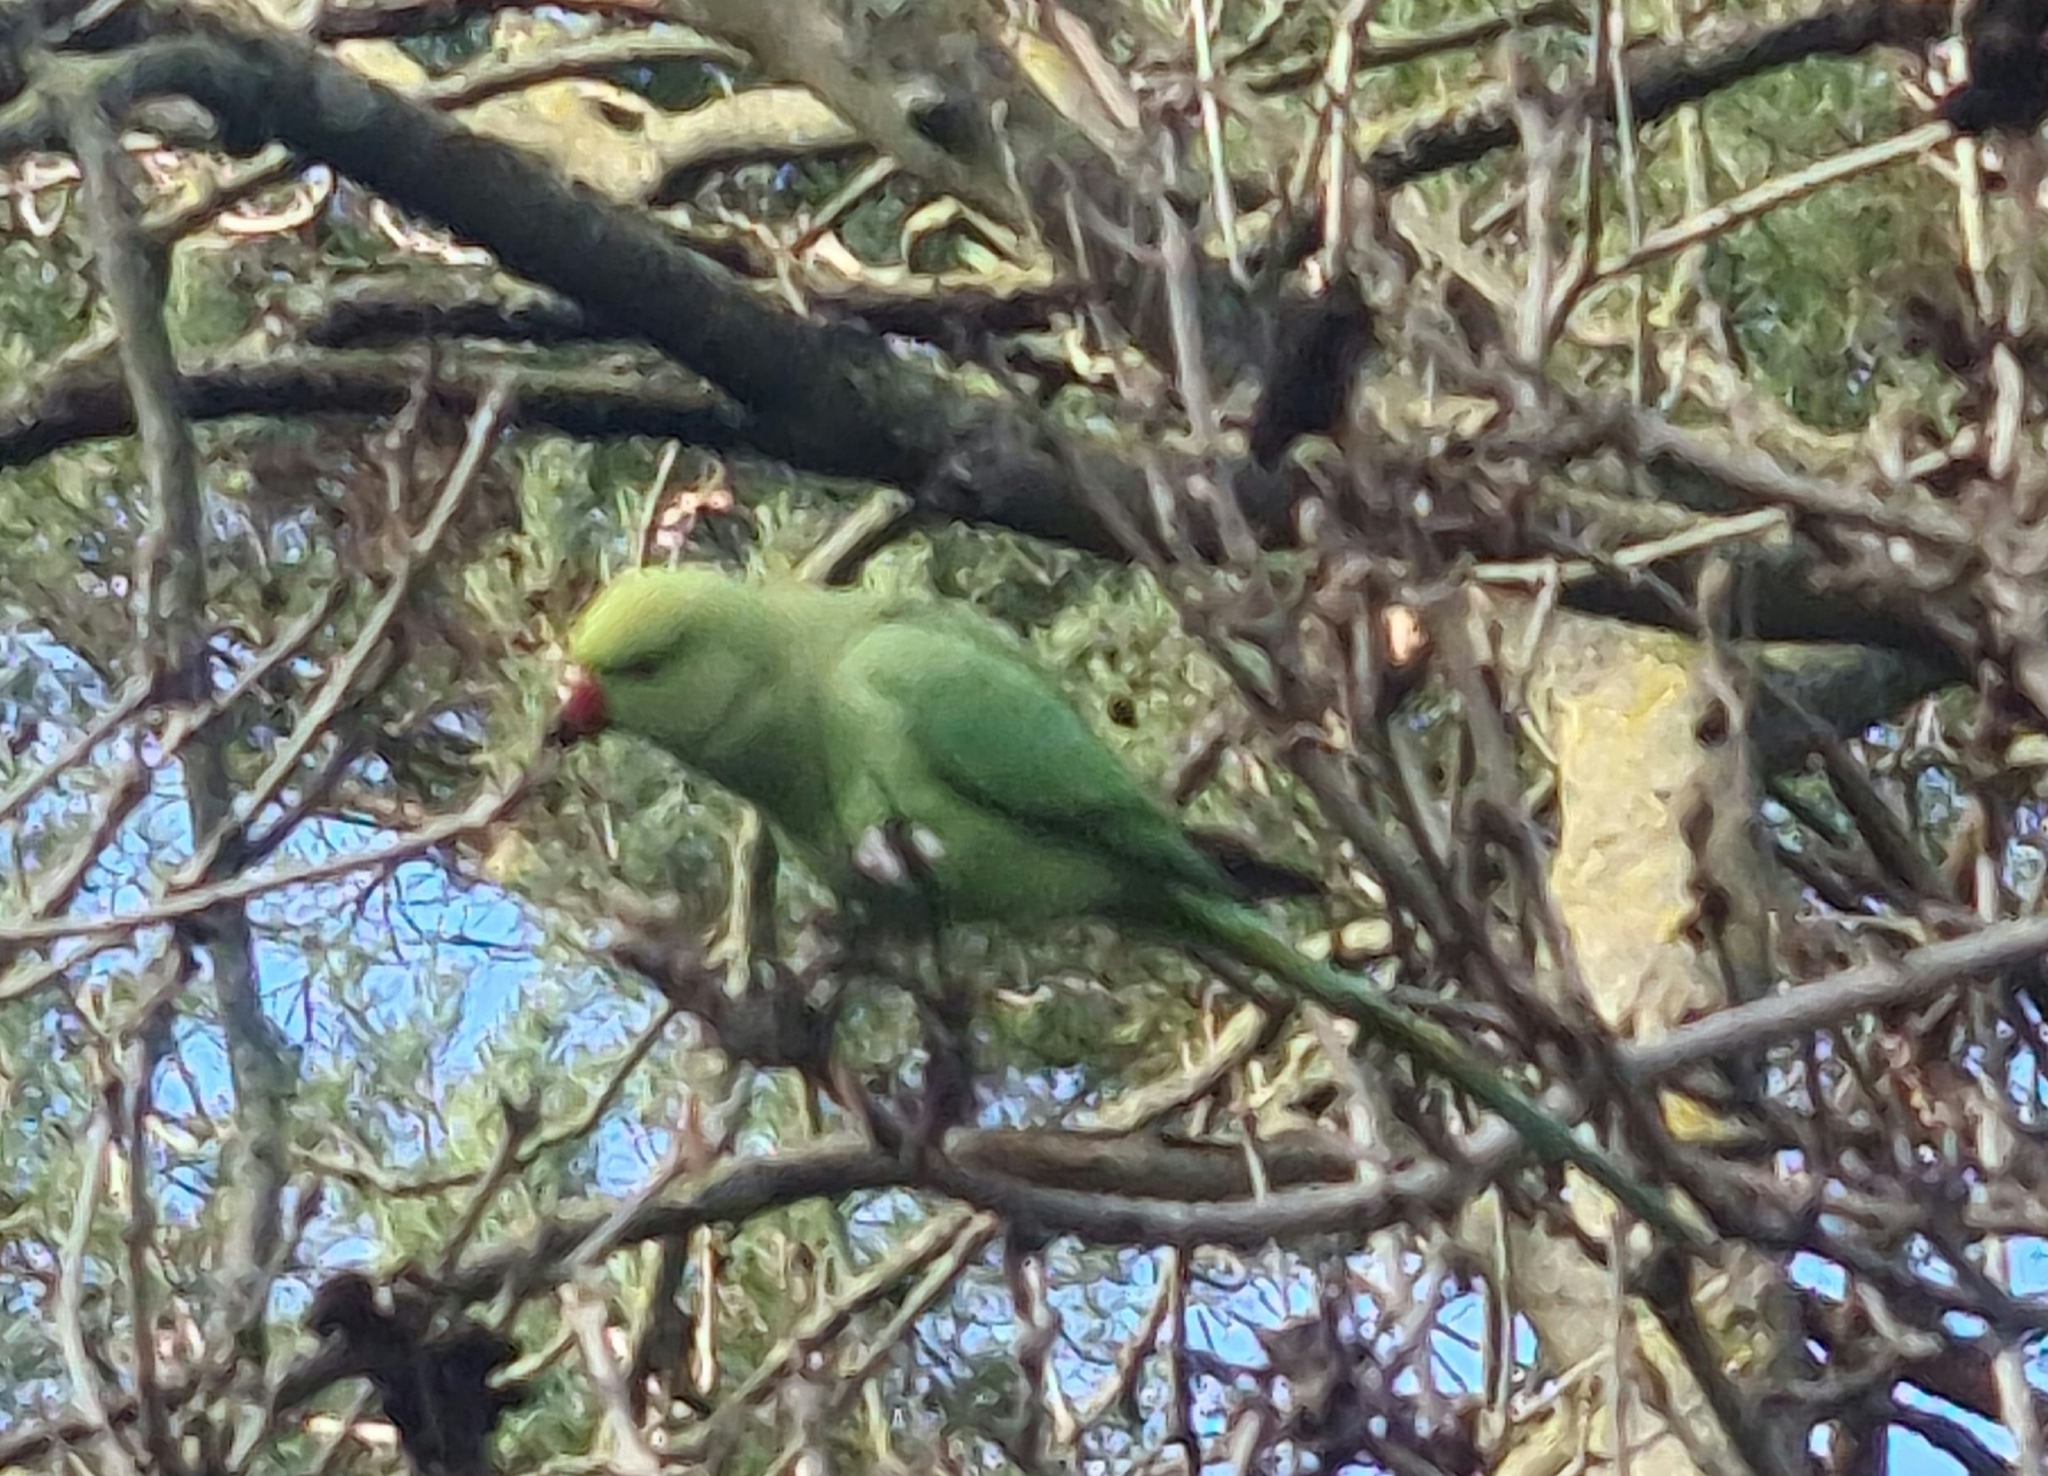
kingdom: Animalia
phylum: Chordata
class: Aves
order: Psittaciformes
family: Psittacidae
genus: Psittacula
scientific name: Psittacula krameri
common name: Rose-ringed parakeet
